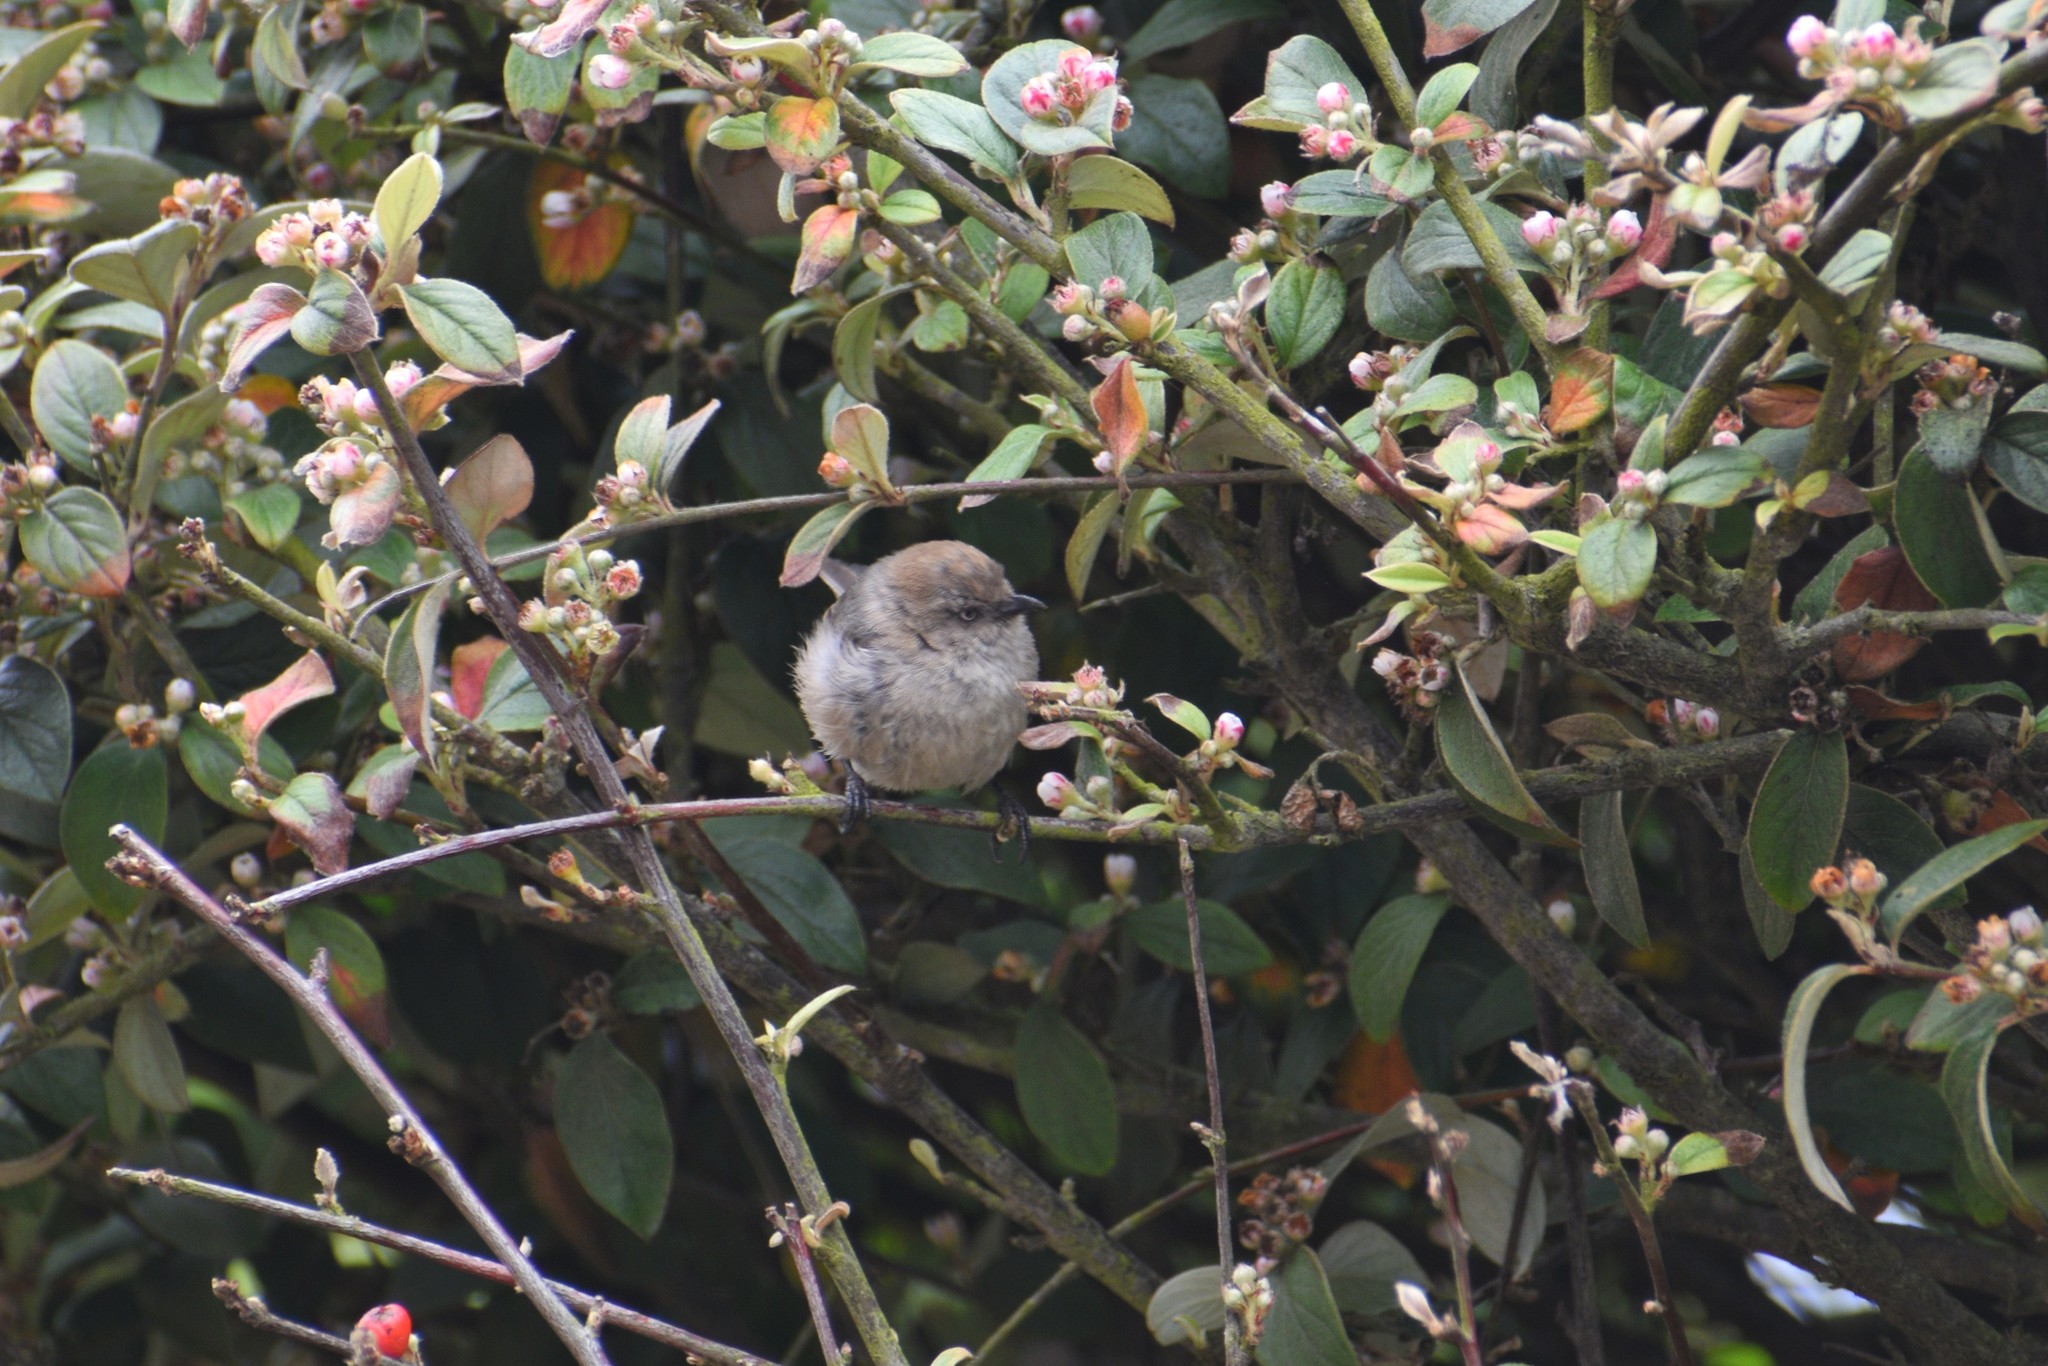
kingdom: Animalia
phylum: Chordata
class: Aves
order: Passeriformes
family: Aegithalidae
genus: Psaltriparus
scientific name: Psaltriparus minimus
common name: American bushtit
